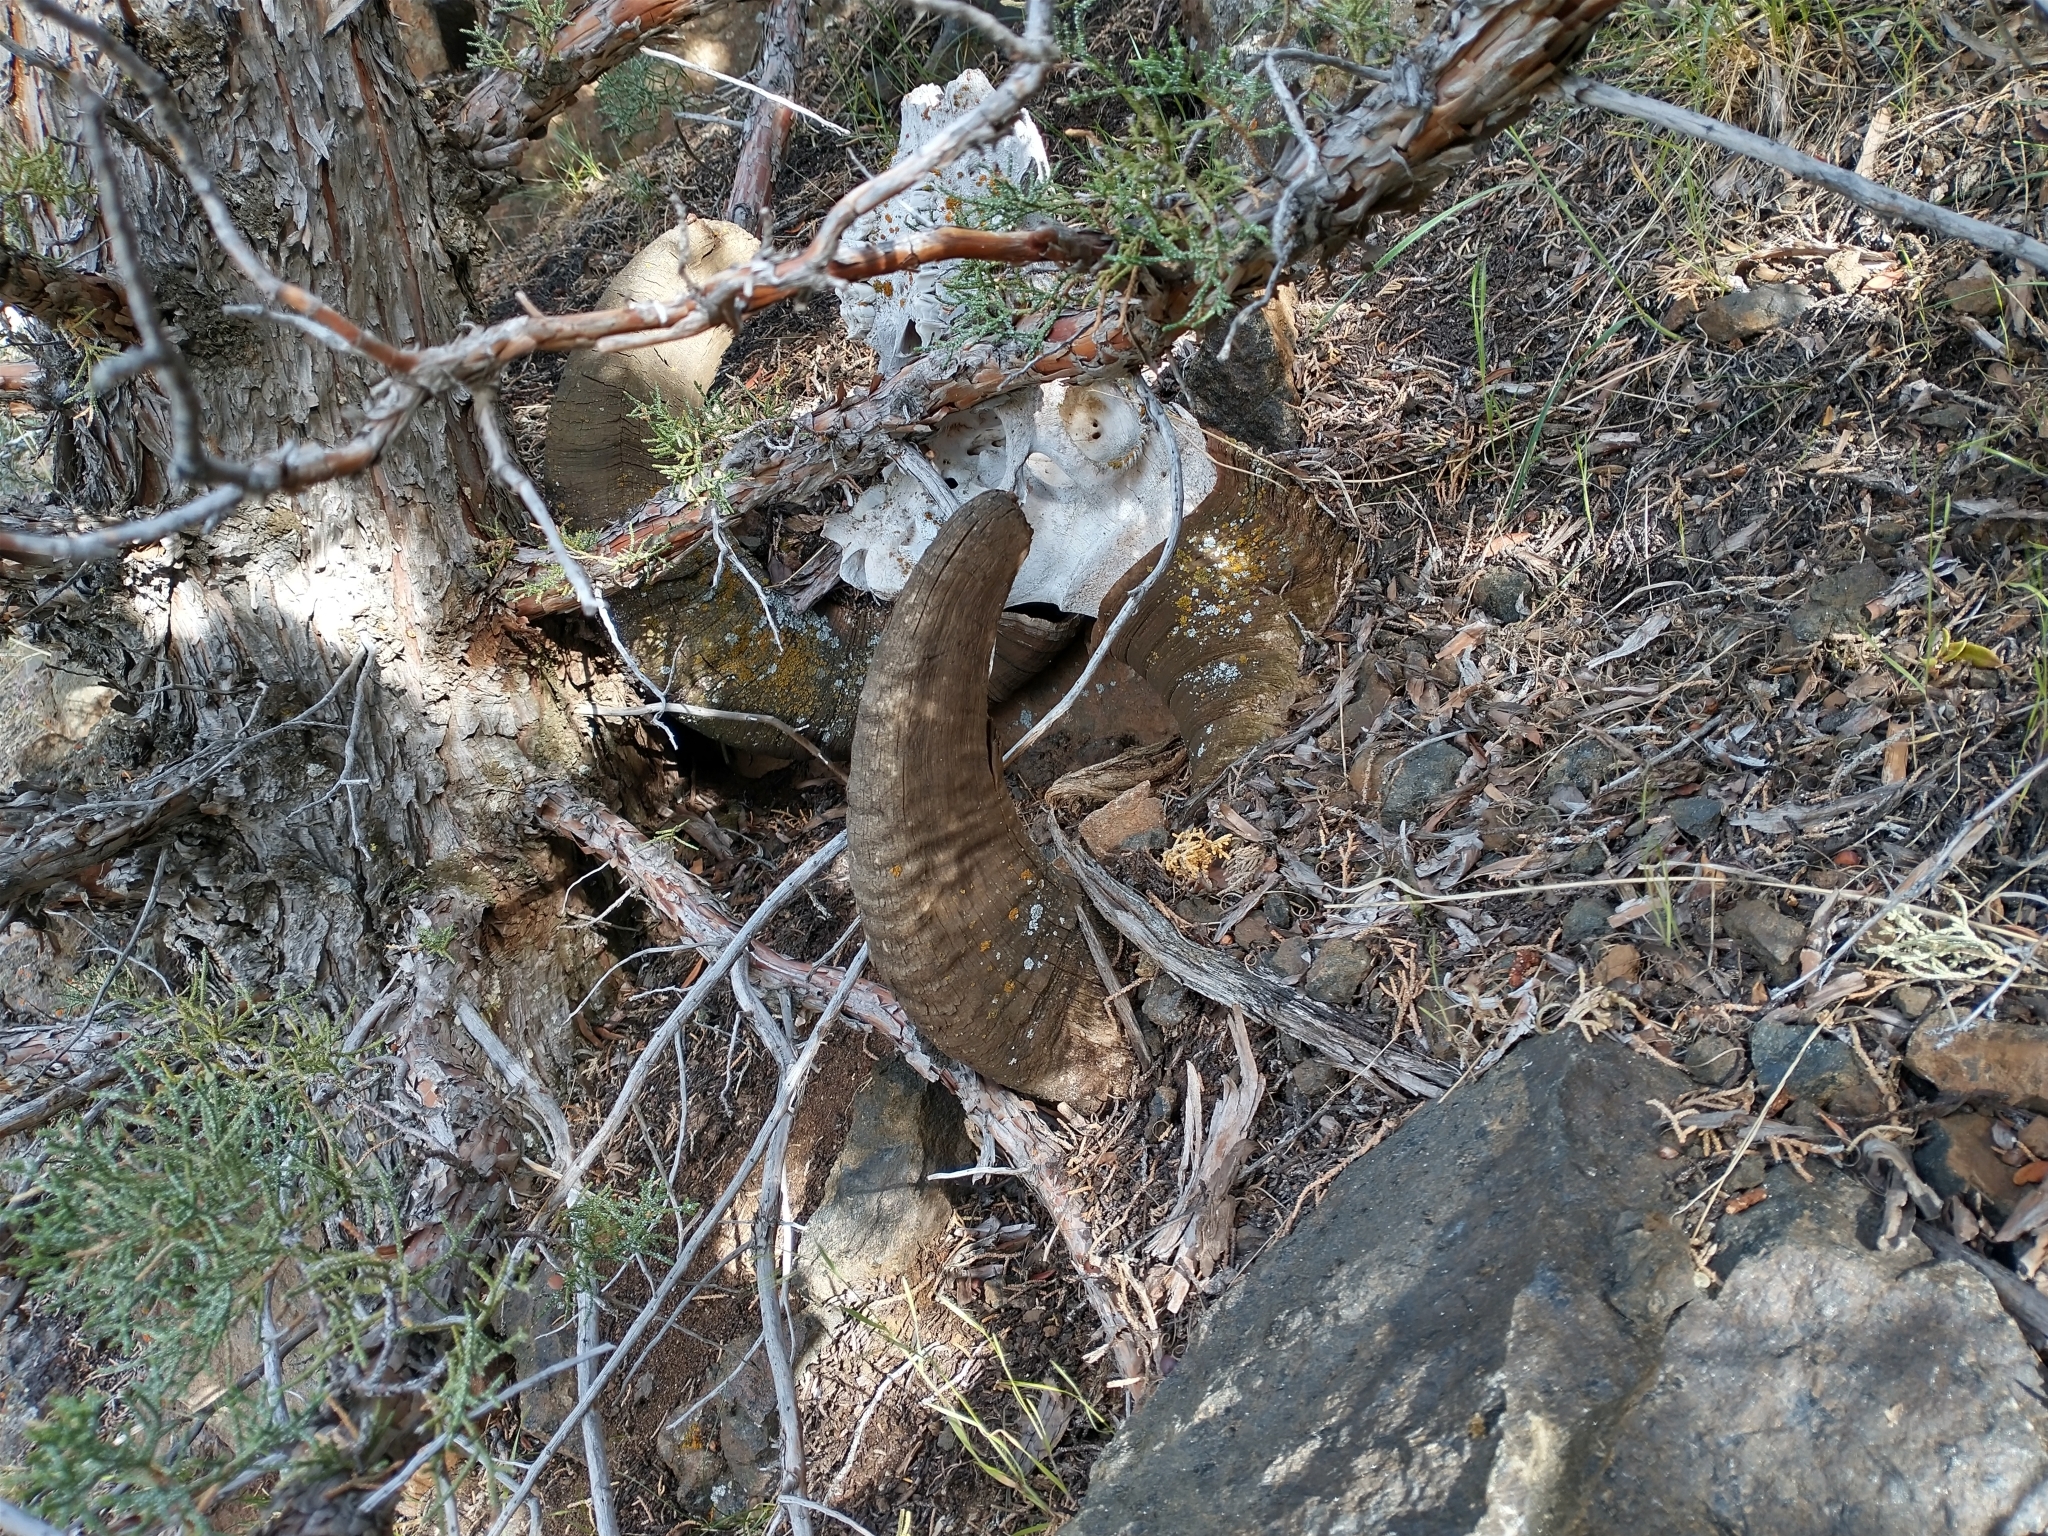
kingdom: Animalia
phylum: Chordata
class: Mammalia
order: Artiodactyla
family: Bovidae
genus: Ovis
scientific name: Ovis canadensis
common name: Bighorn sheep
